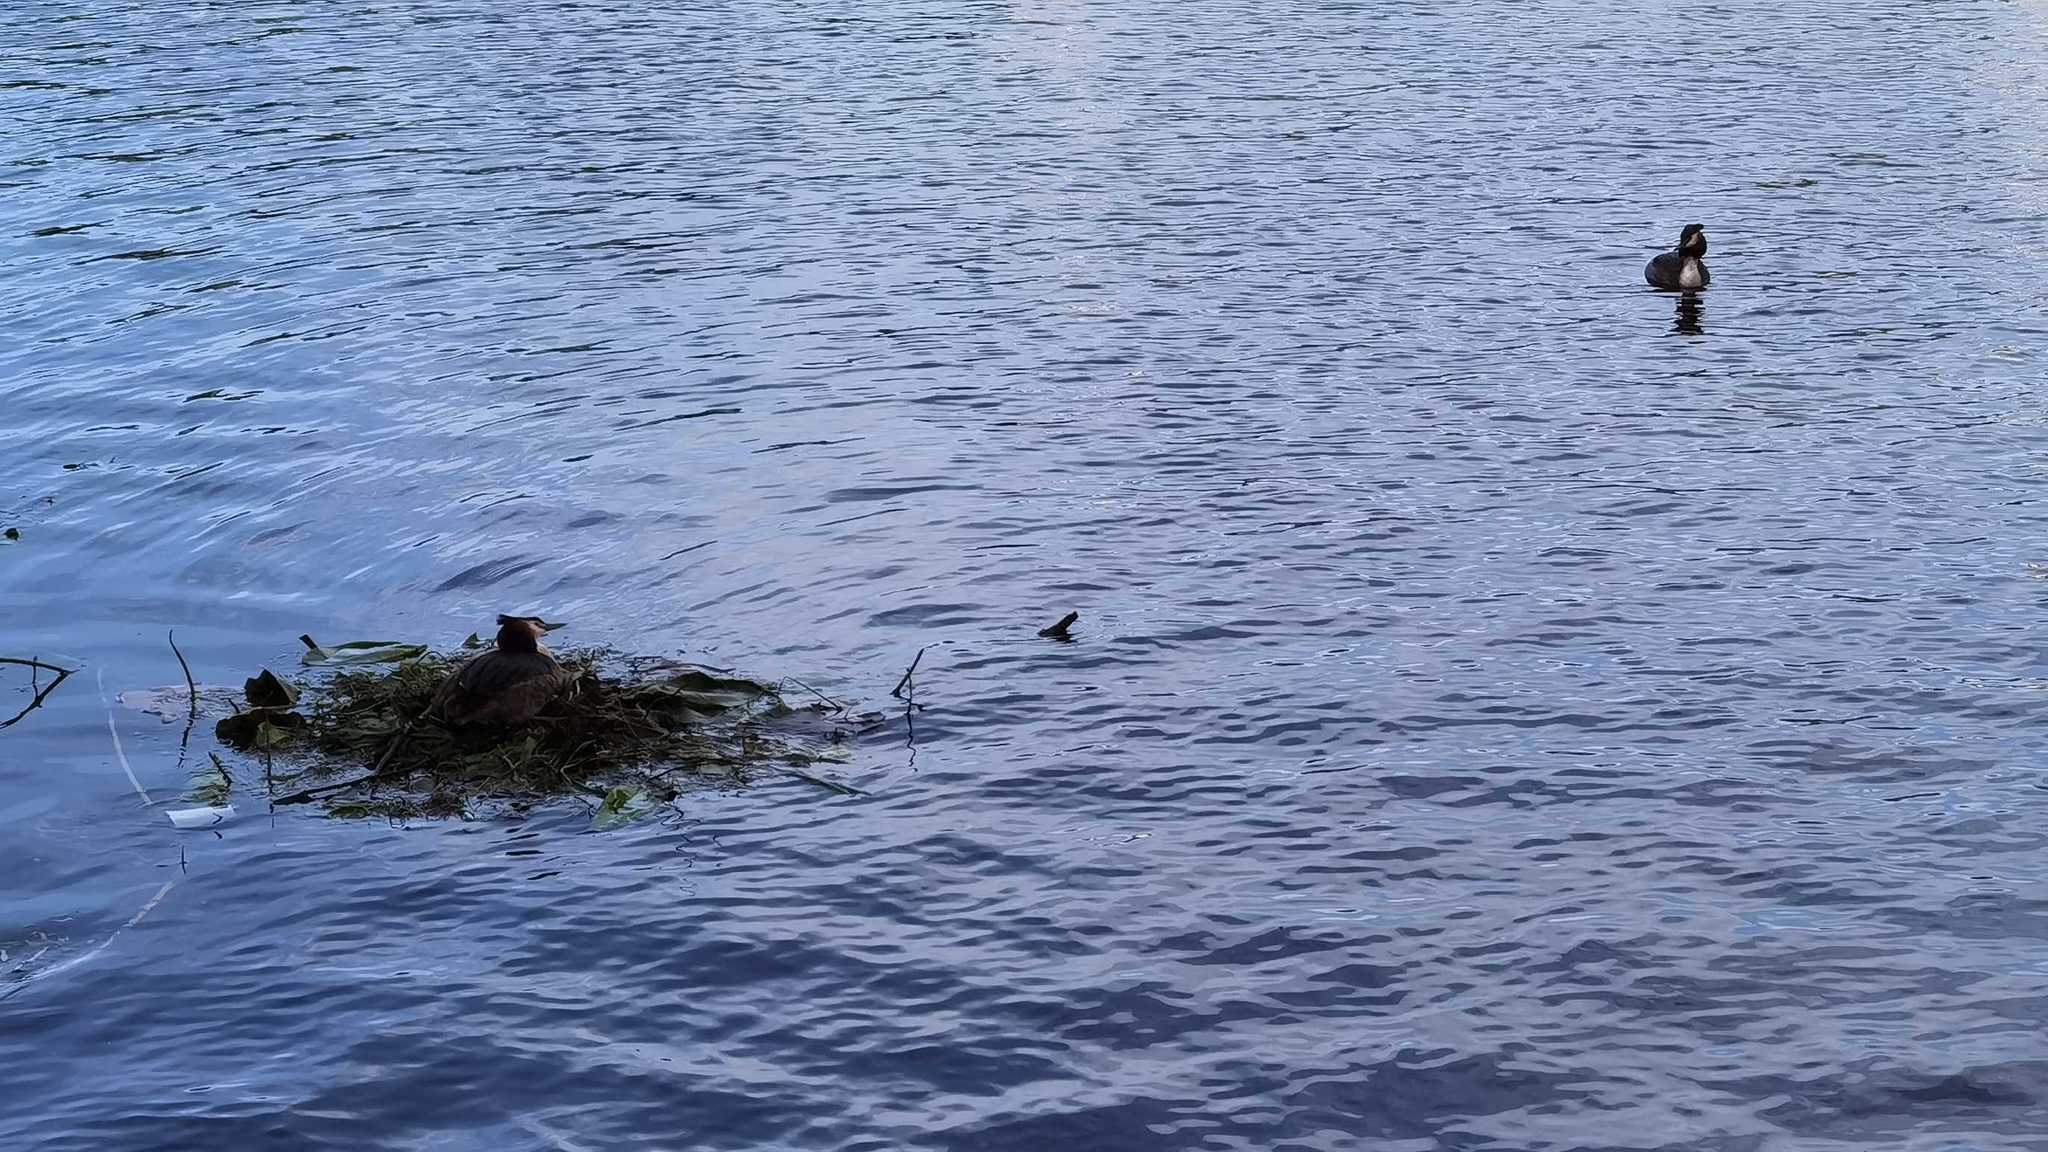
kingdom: Animalia
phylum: Chordata
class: Aves
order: Podicipediformes
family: Podicipedidae
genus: Podiceps
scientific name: Podiceps cristatus
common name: Great crested grebe
